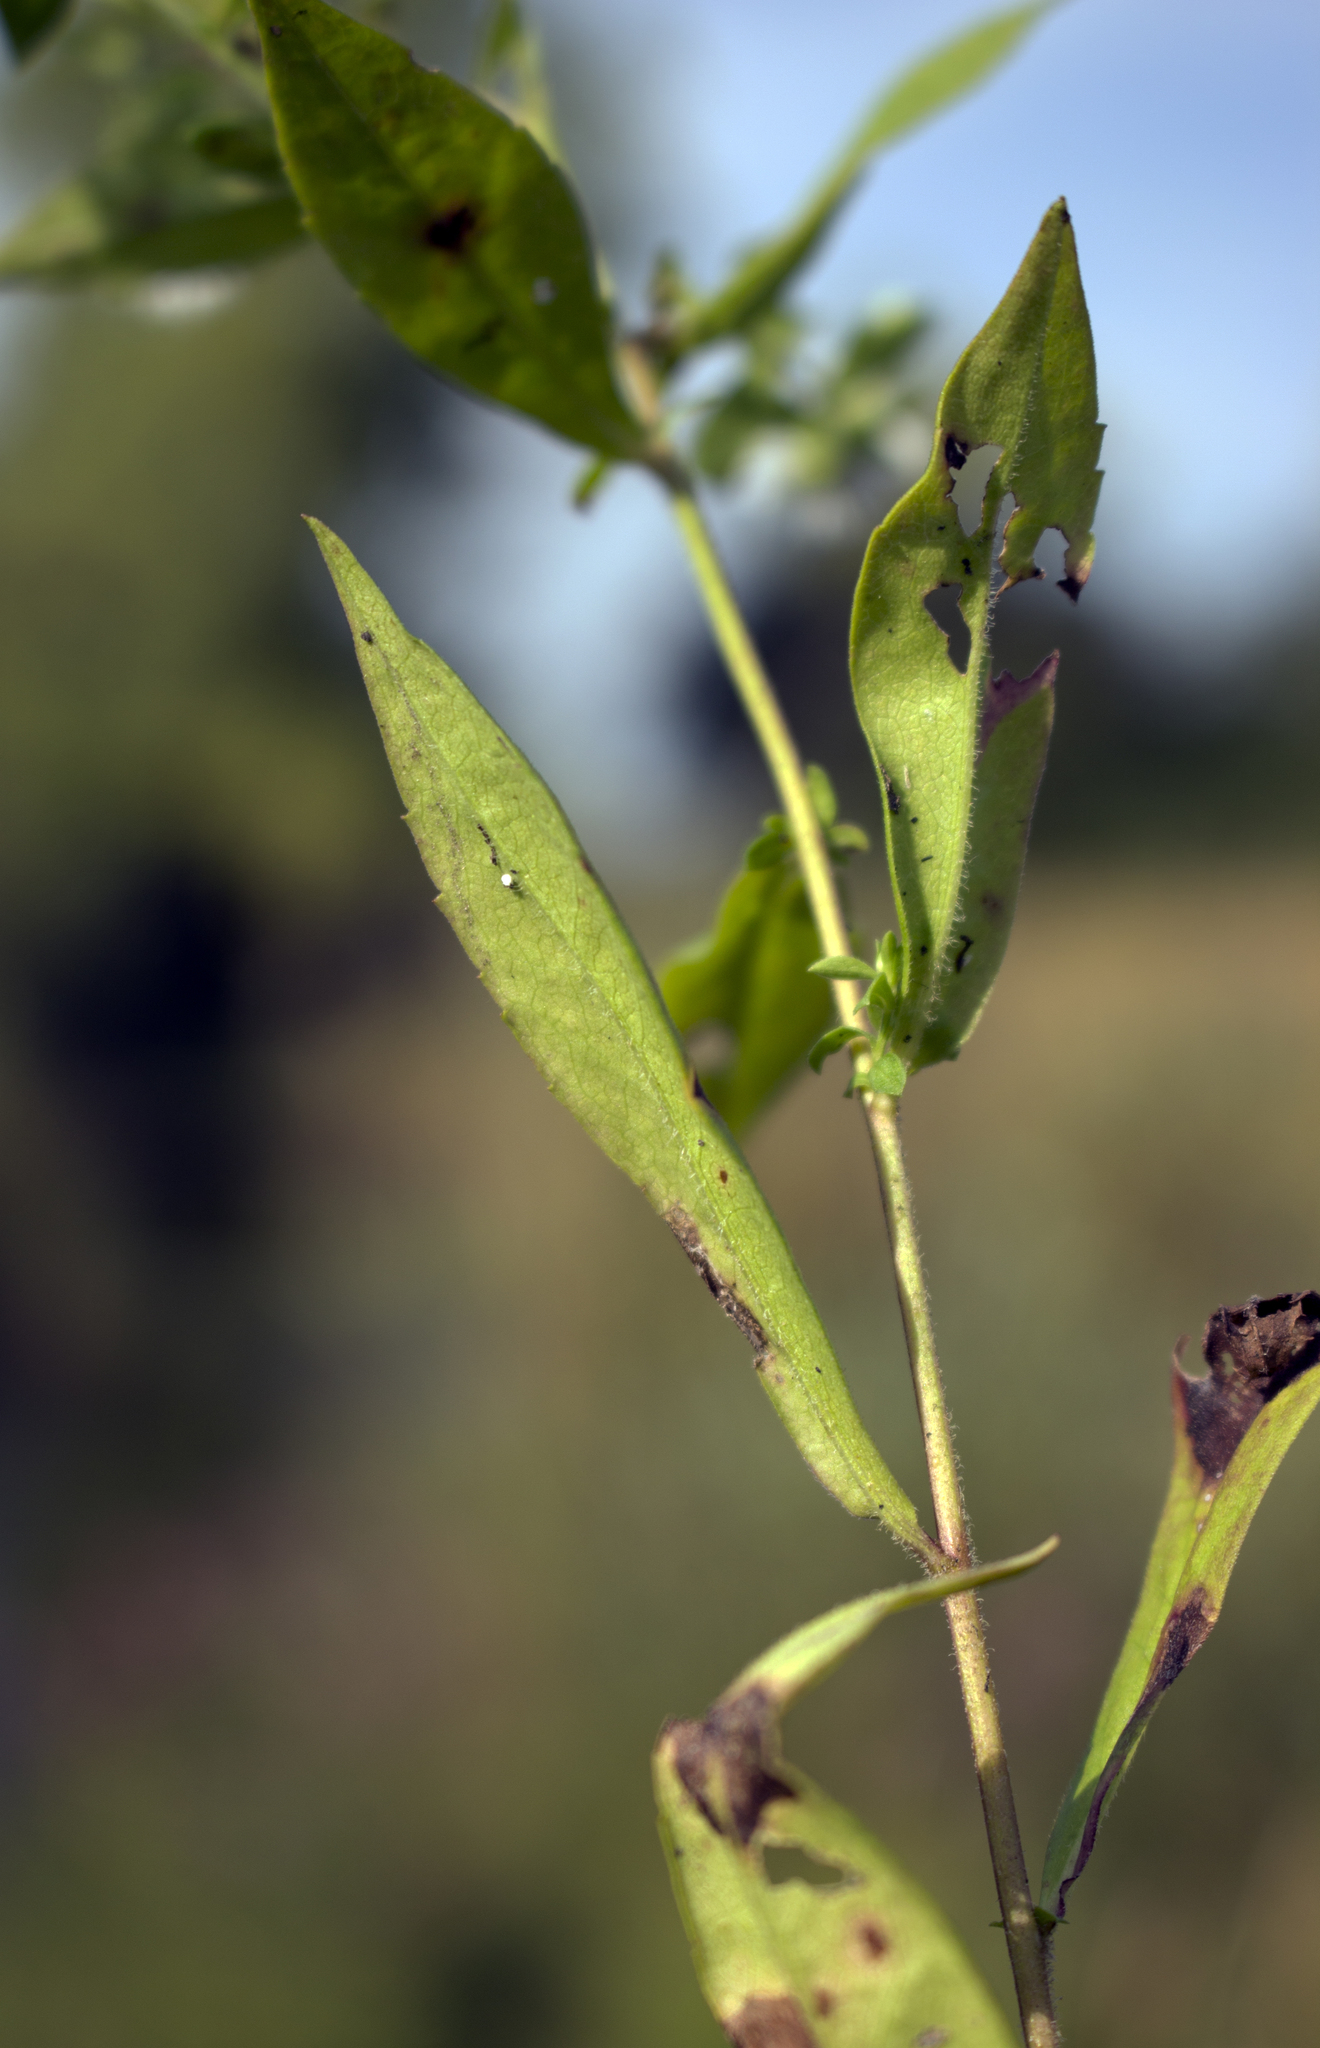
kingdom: Plantae
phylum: Tracheophyta
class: Magnoliopsida
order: Asterales
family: Asteraceae
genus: Symphyotrichum
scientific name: Symphyotrichum lateriflorum
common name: Calico aster
